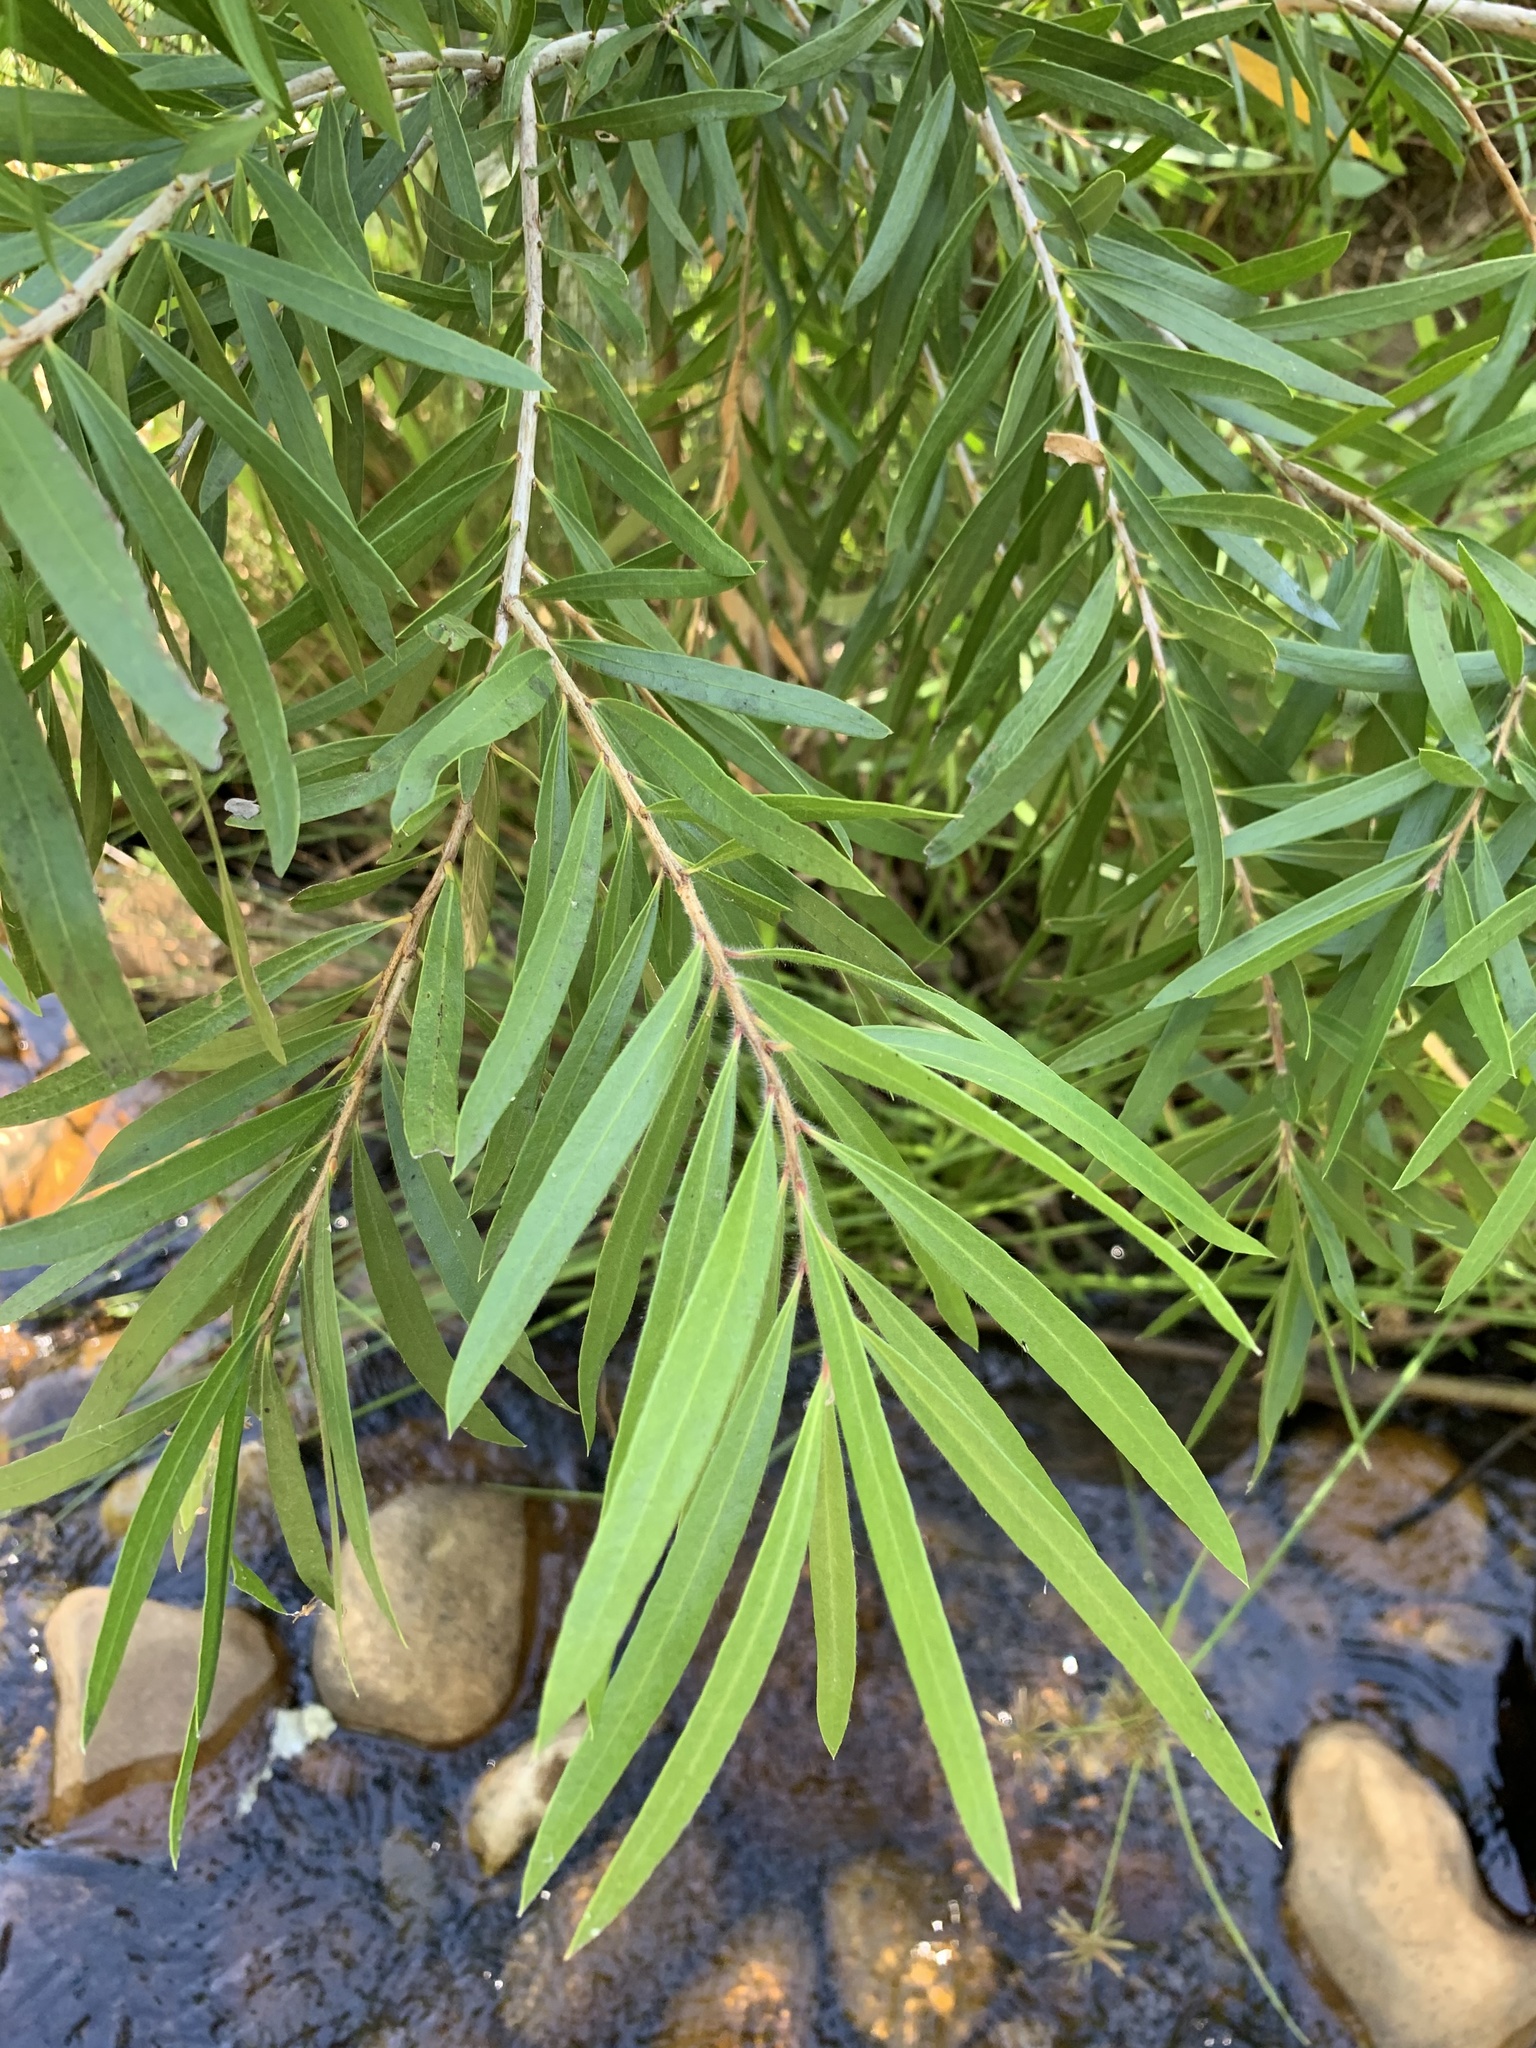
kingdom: Plantae
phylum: Tracheophyta
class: Magnoliopsida
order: Myrtales
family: Myrtaceae
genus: Callistemon
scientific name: Callistemon viminalis
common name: Drooping bottlebrush
